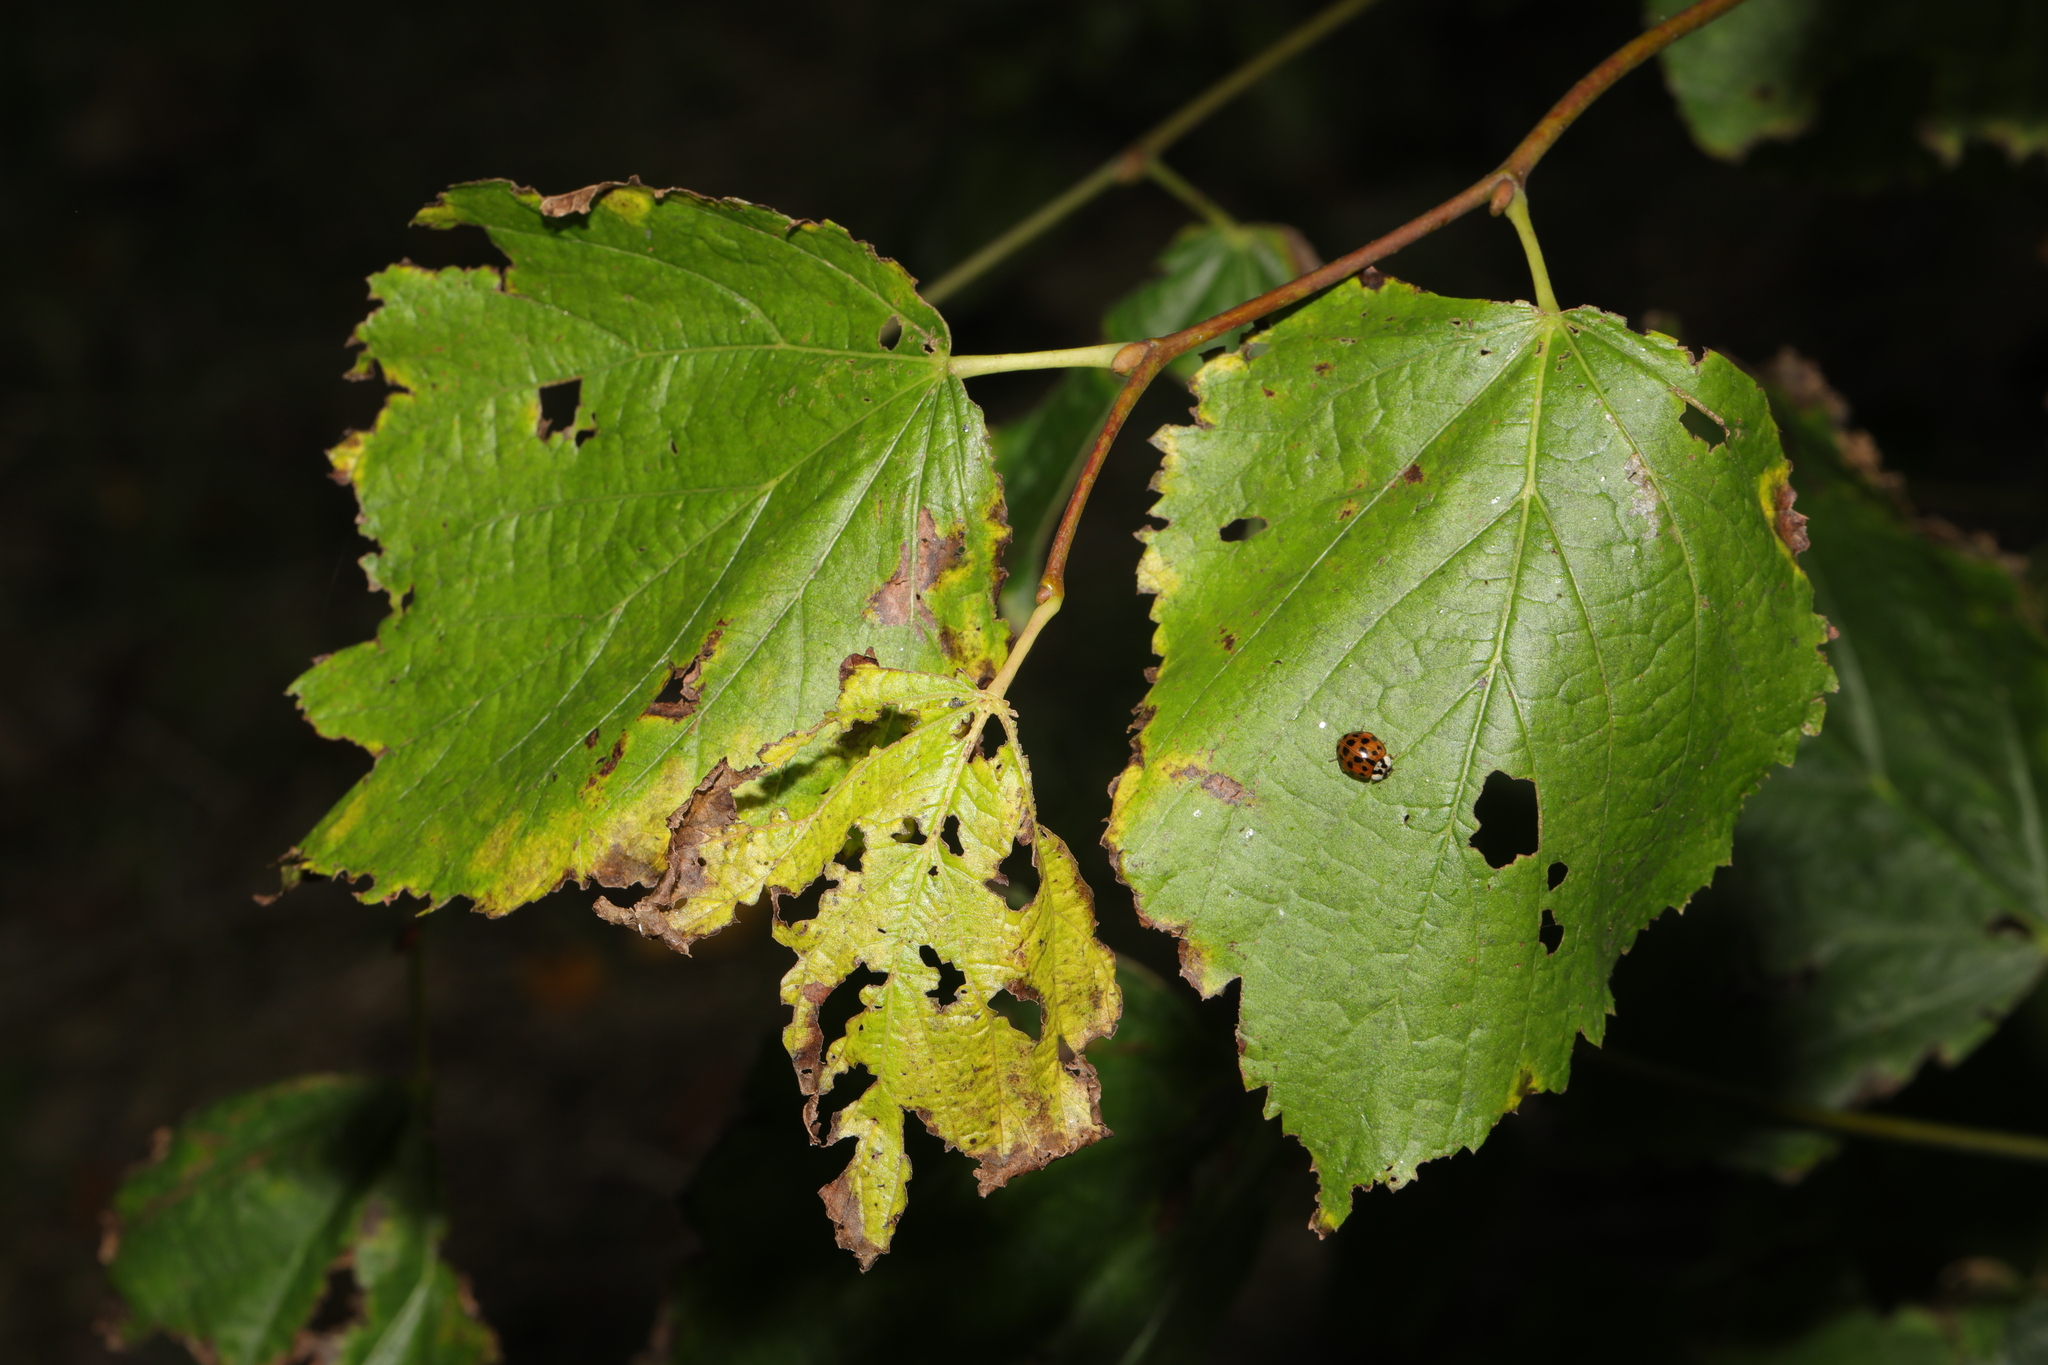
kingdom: Plantae
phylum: Tracheophyta
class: Magnoliopsida
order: Malvales
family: Malvaceae
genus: Tilia
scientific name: Tilia europaea
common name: European linden
